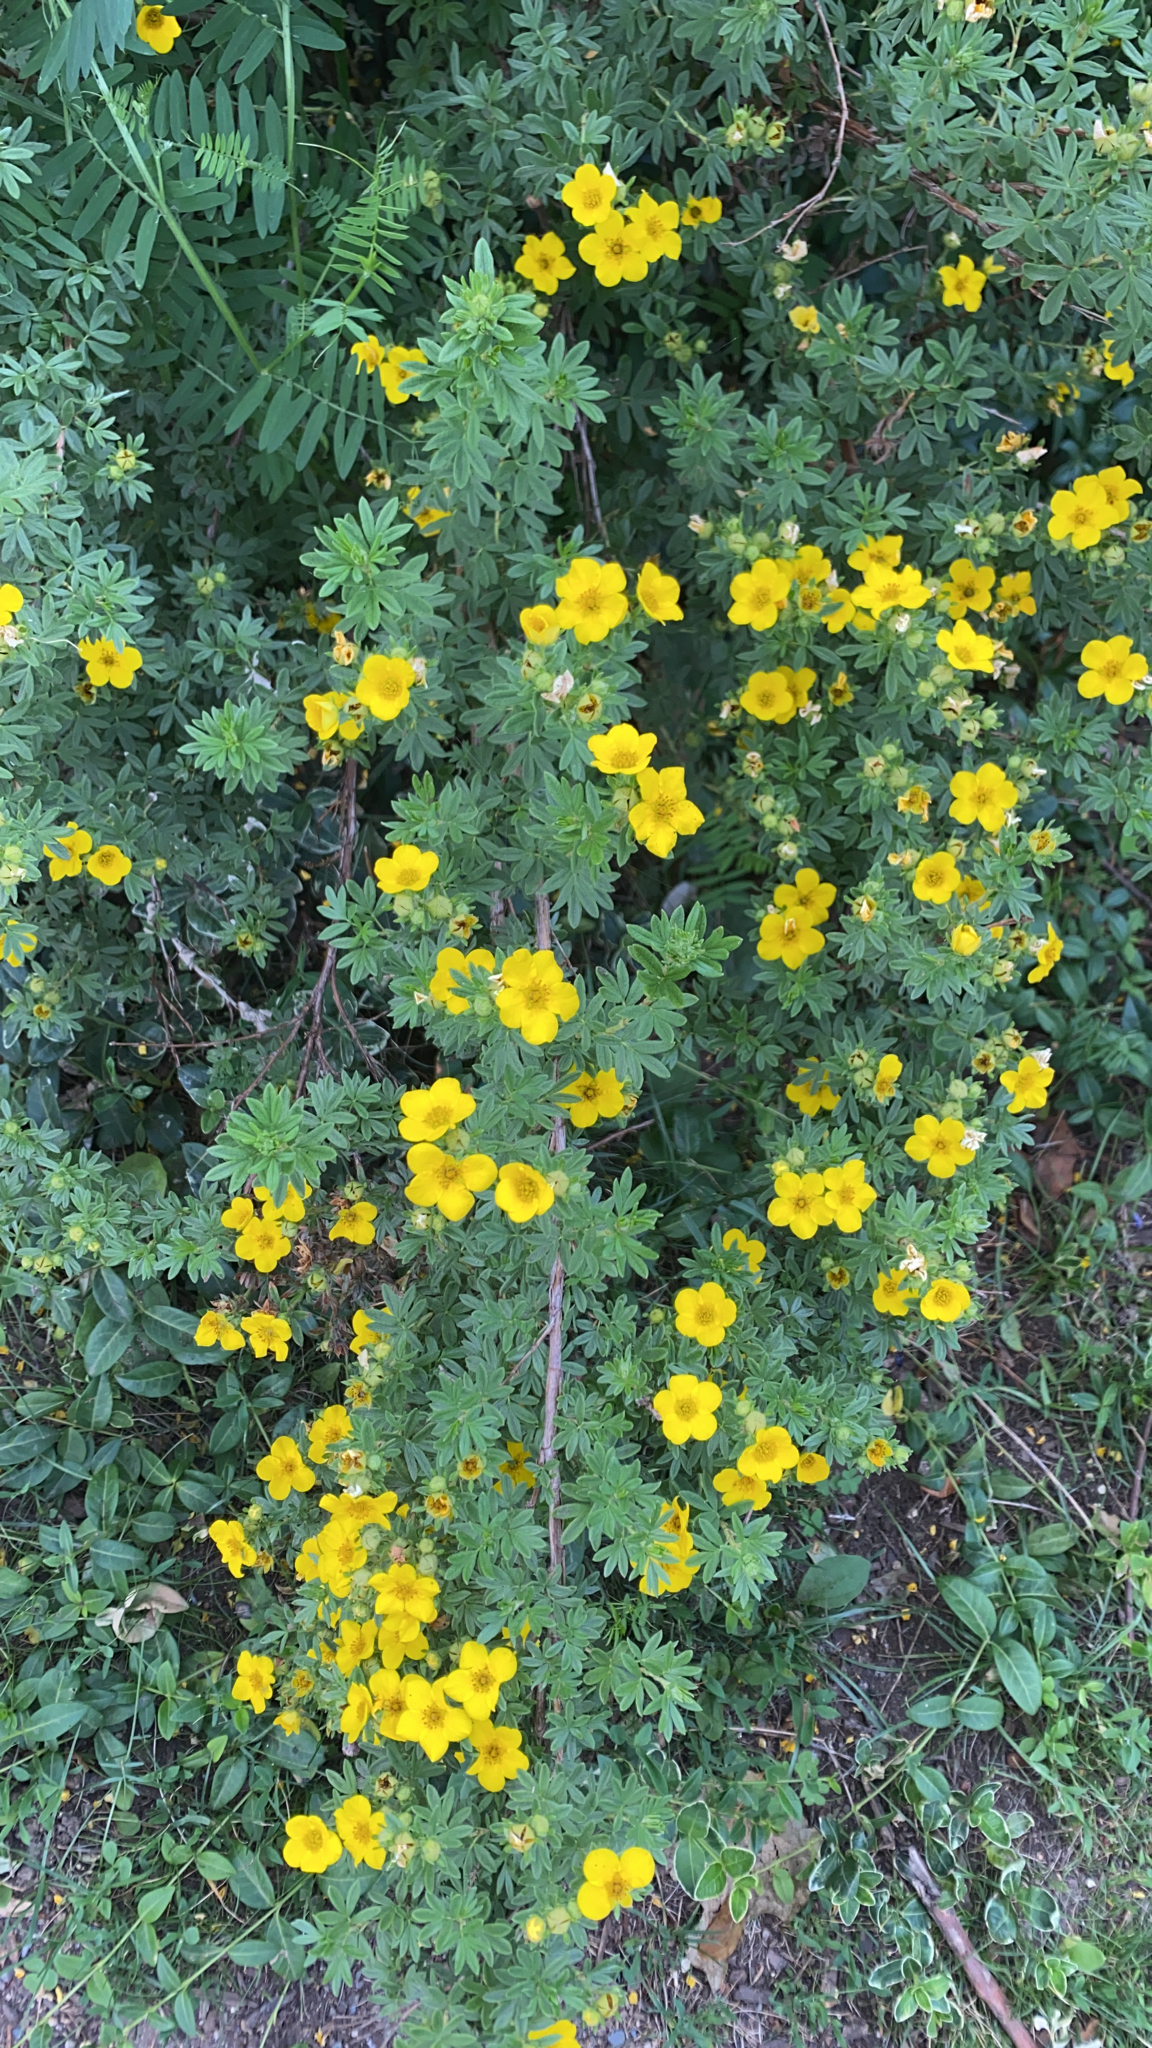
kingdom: Plantae
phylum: Tracheophyta
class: Magnoliopsida
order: Rosales
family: Rosaceae
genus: Dasiphora
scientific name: Dasiphora fruticosa
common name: Shrubby cinquefoil
